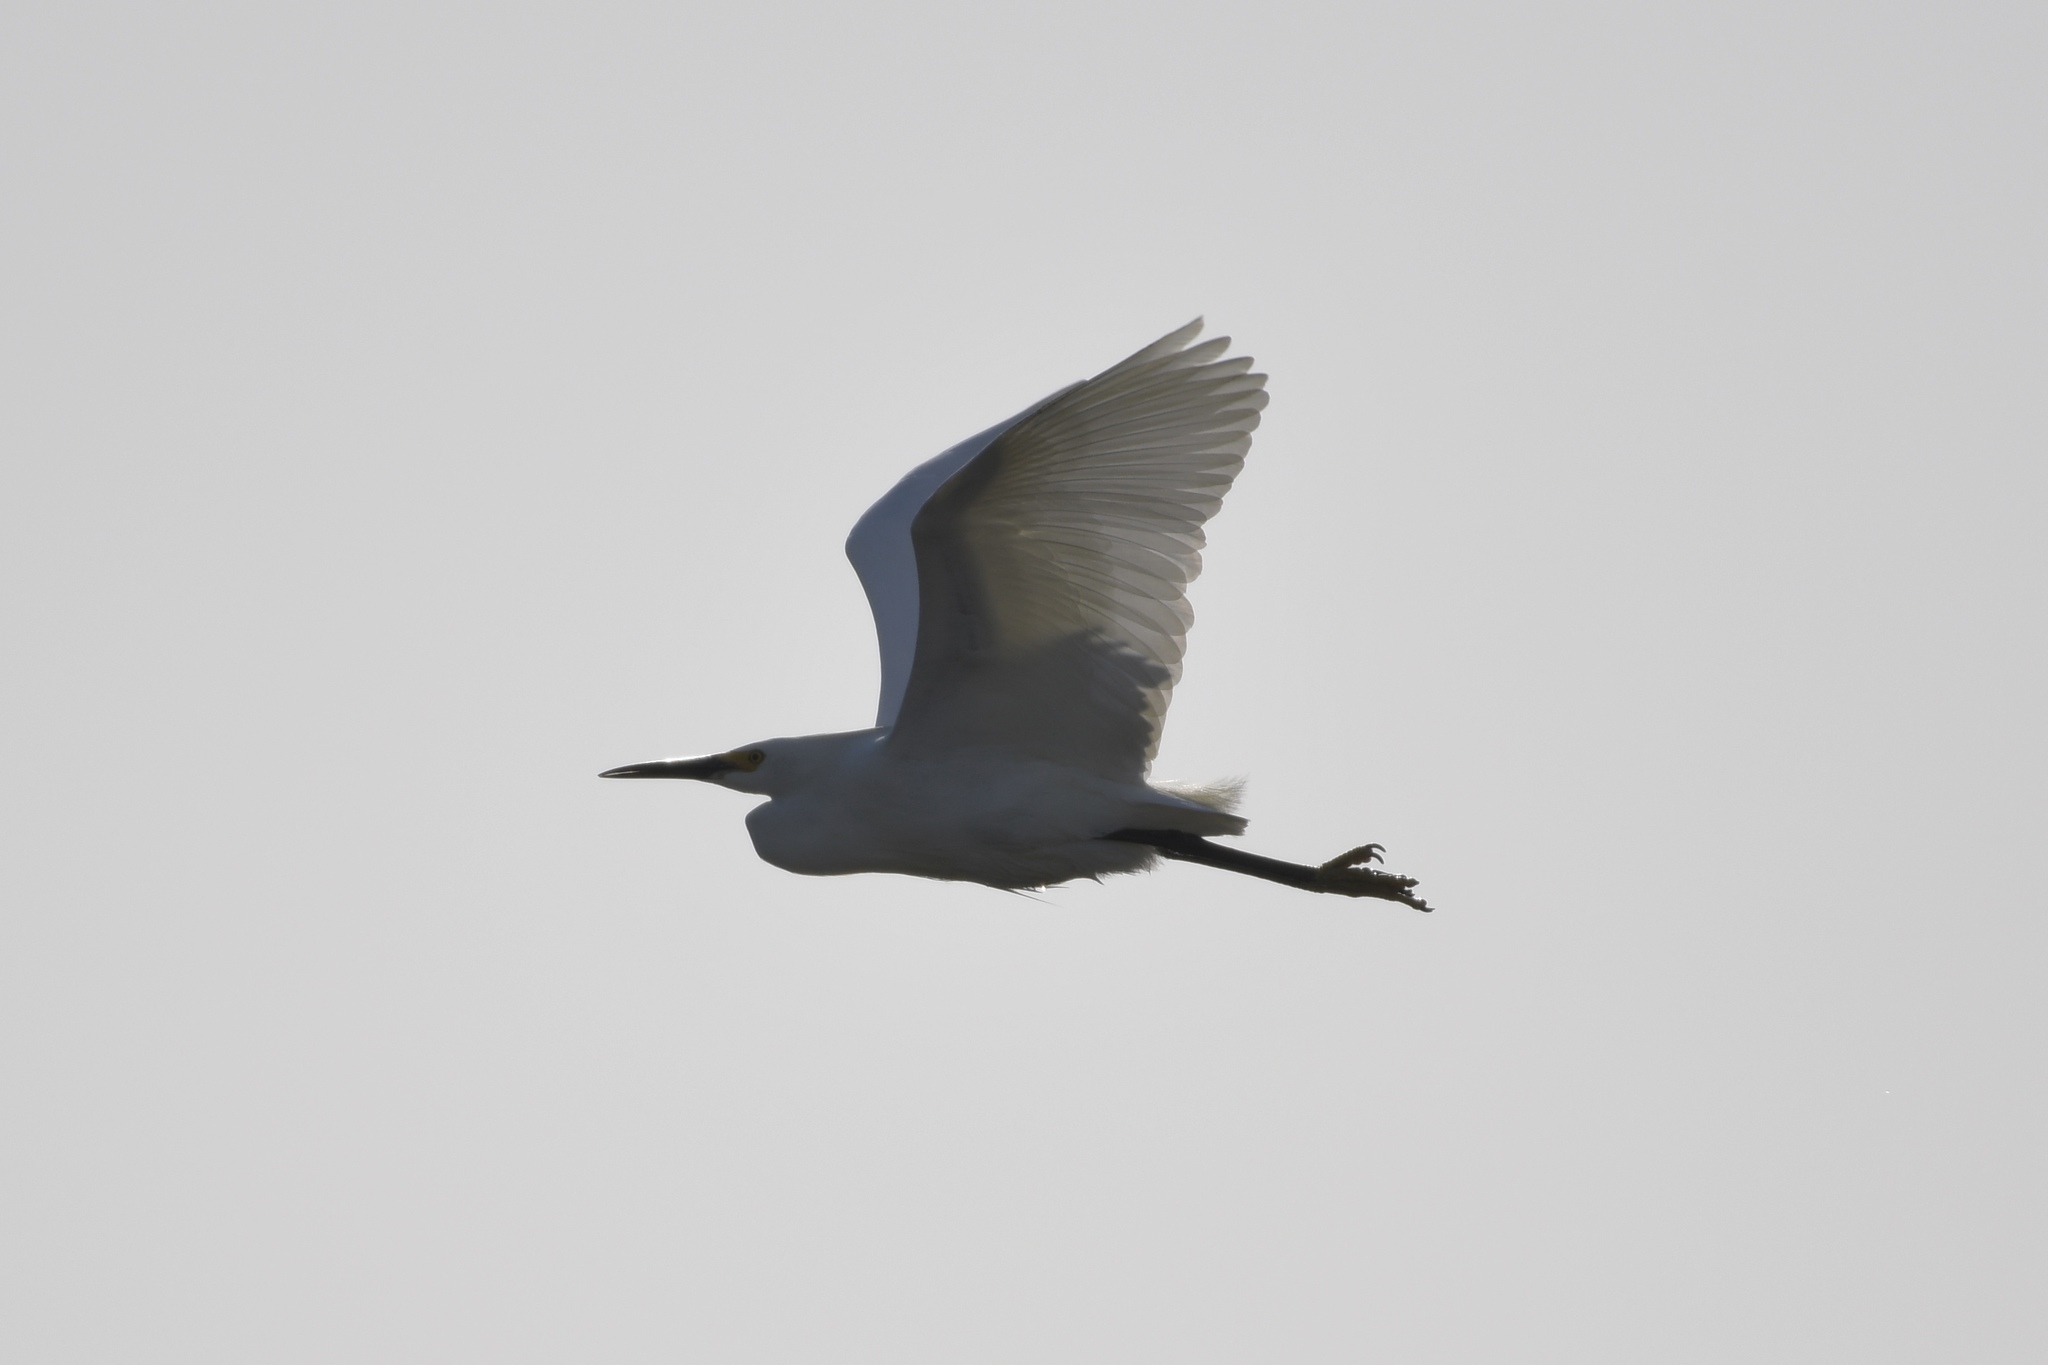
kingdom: Animalia
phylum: Chordata
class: Aves
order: Pelecaniformes
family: Ardeidae
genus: Egretta
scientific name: Egretta thula
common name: Snowy egret
